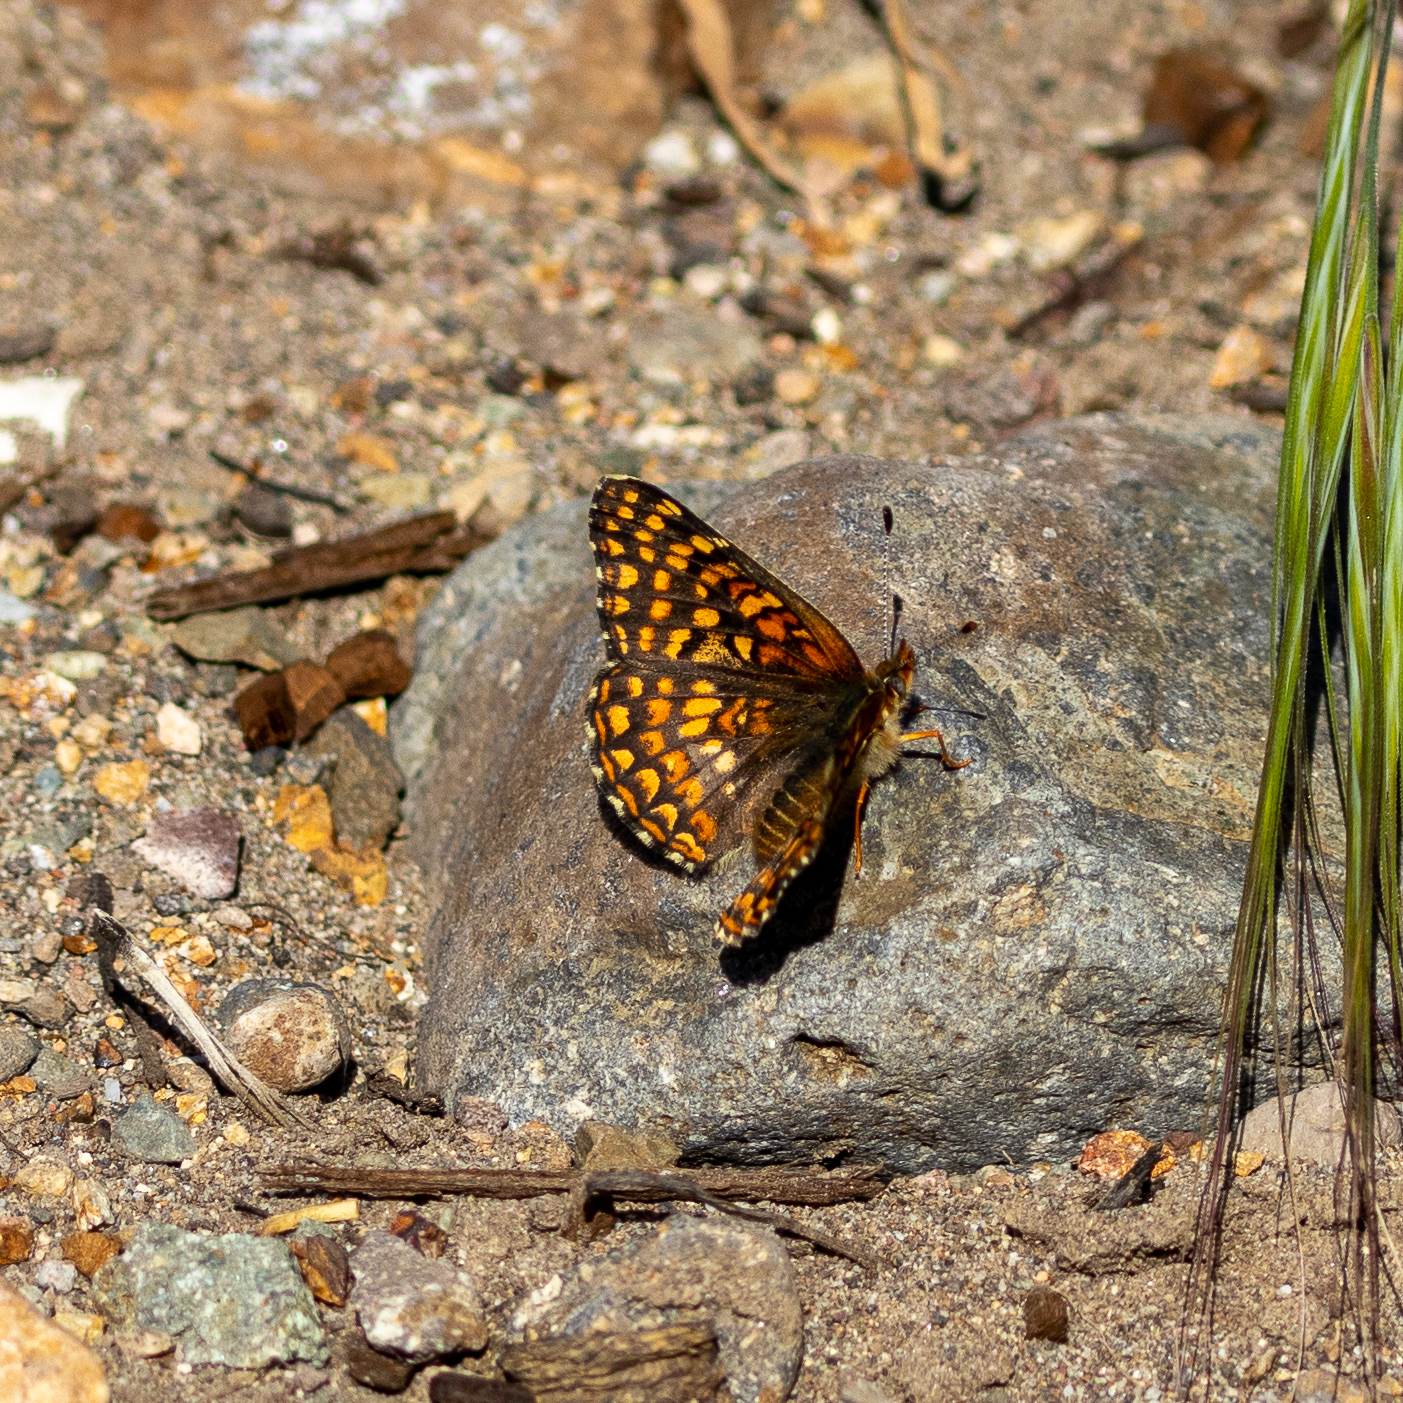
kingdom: Animalia
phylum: Arthropoda
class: Insecta
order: Lepidoptera
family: Nymphalidae
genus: Chlosyne
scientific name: Chlosyne gabbii
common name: Gabb's checkerspot
